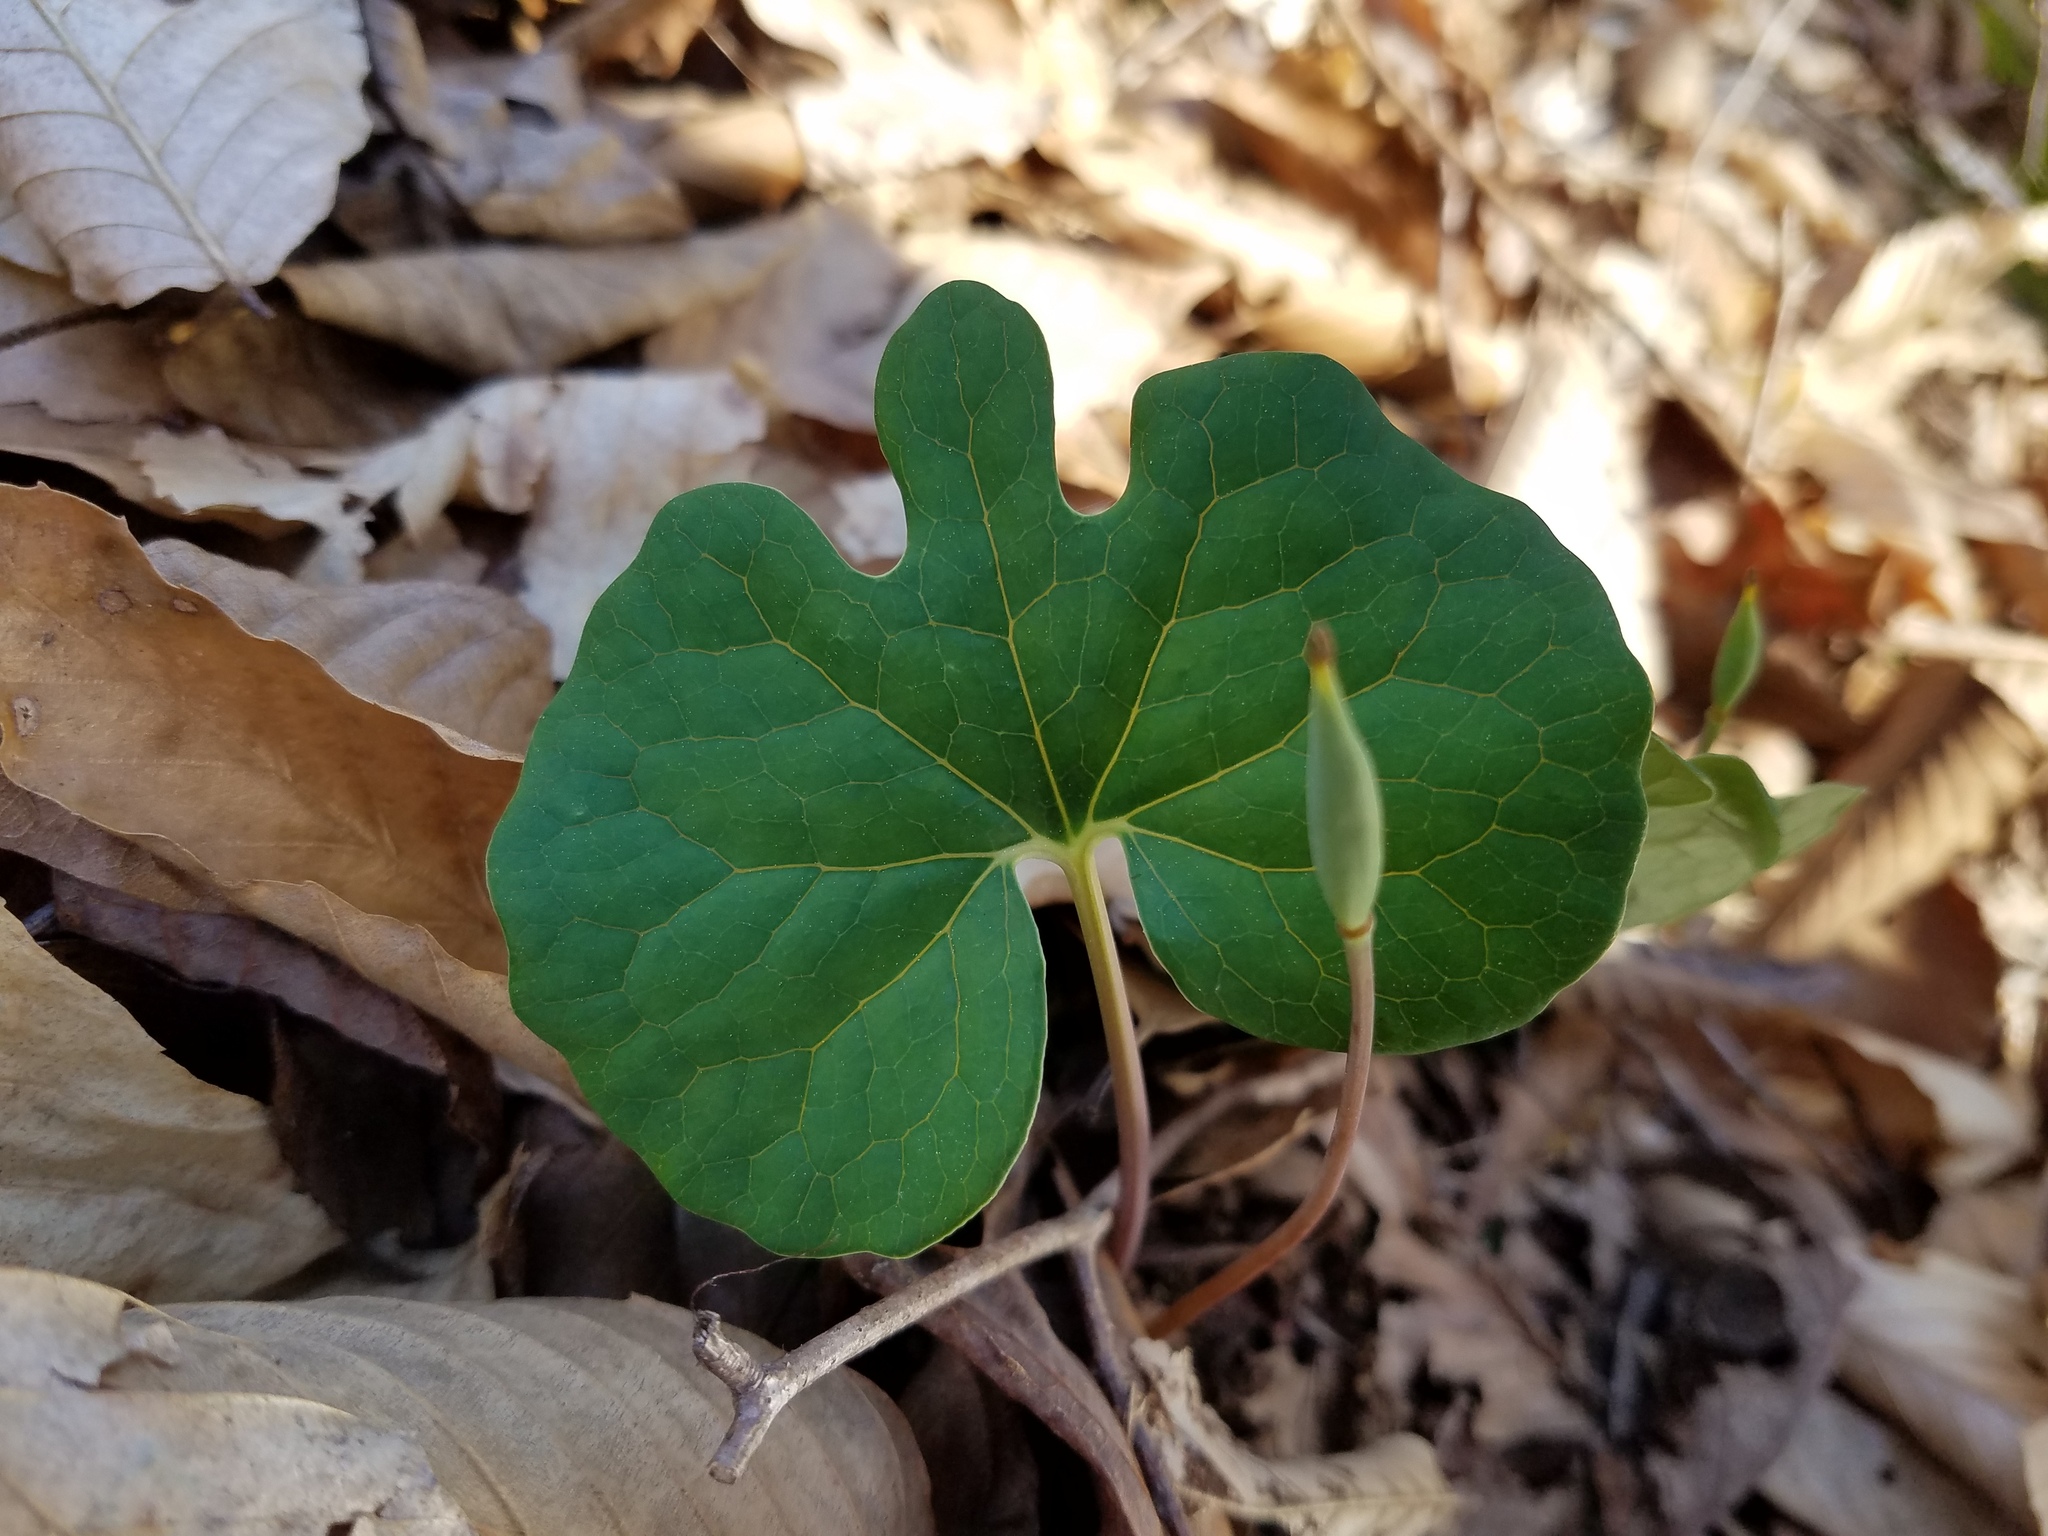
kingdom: Plantae
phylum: Tracheophyta
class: Magnoliopsida
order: Ranunculales
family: Papaveraceae
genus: Sanguinaria
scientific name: Sanguinaria canadensis
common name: Bloodroot
